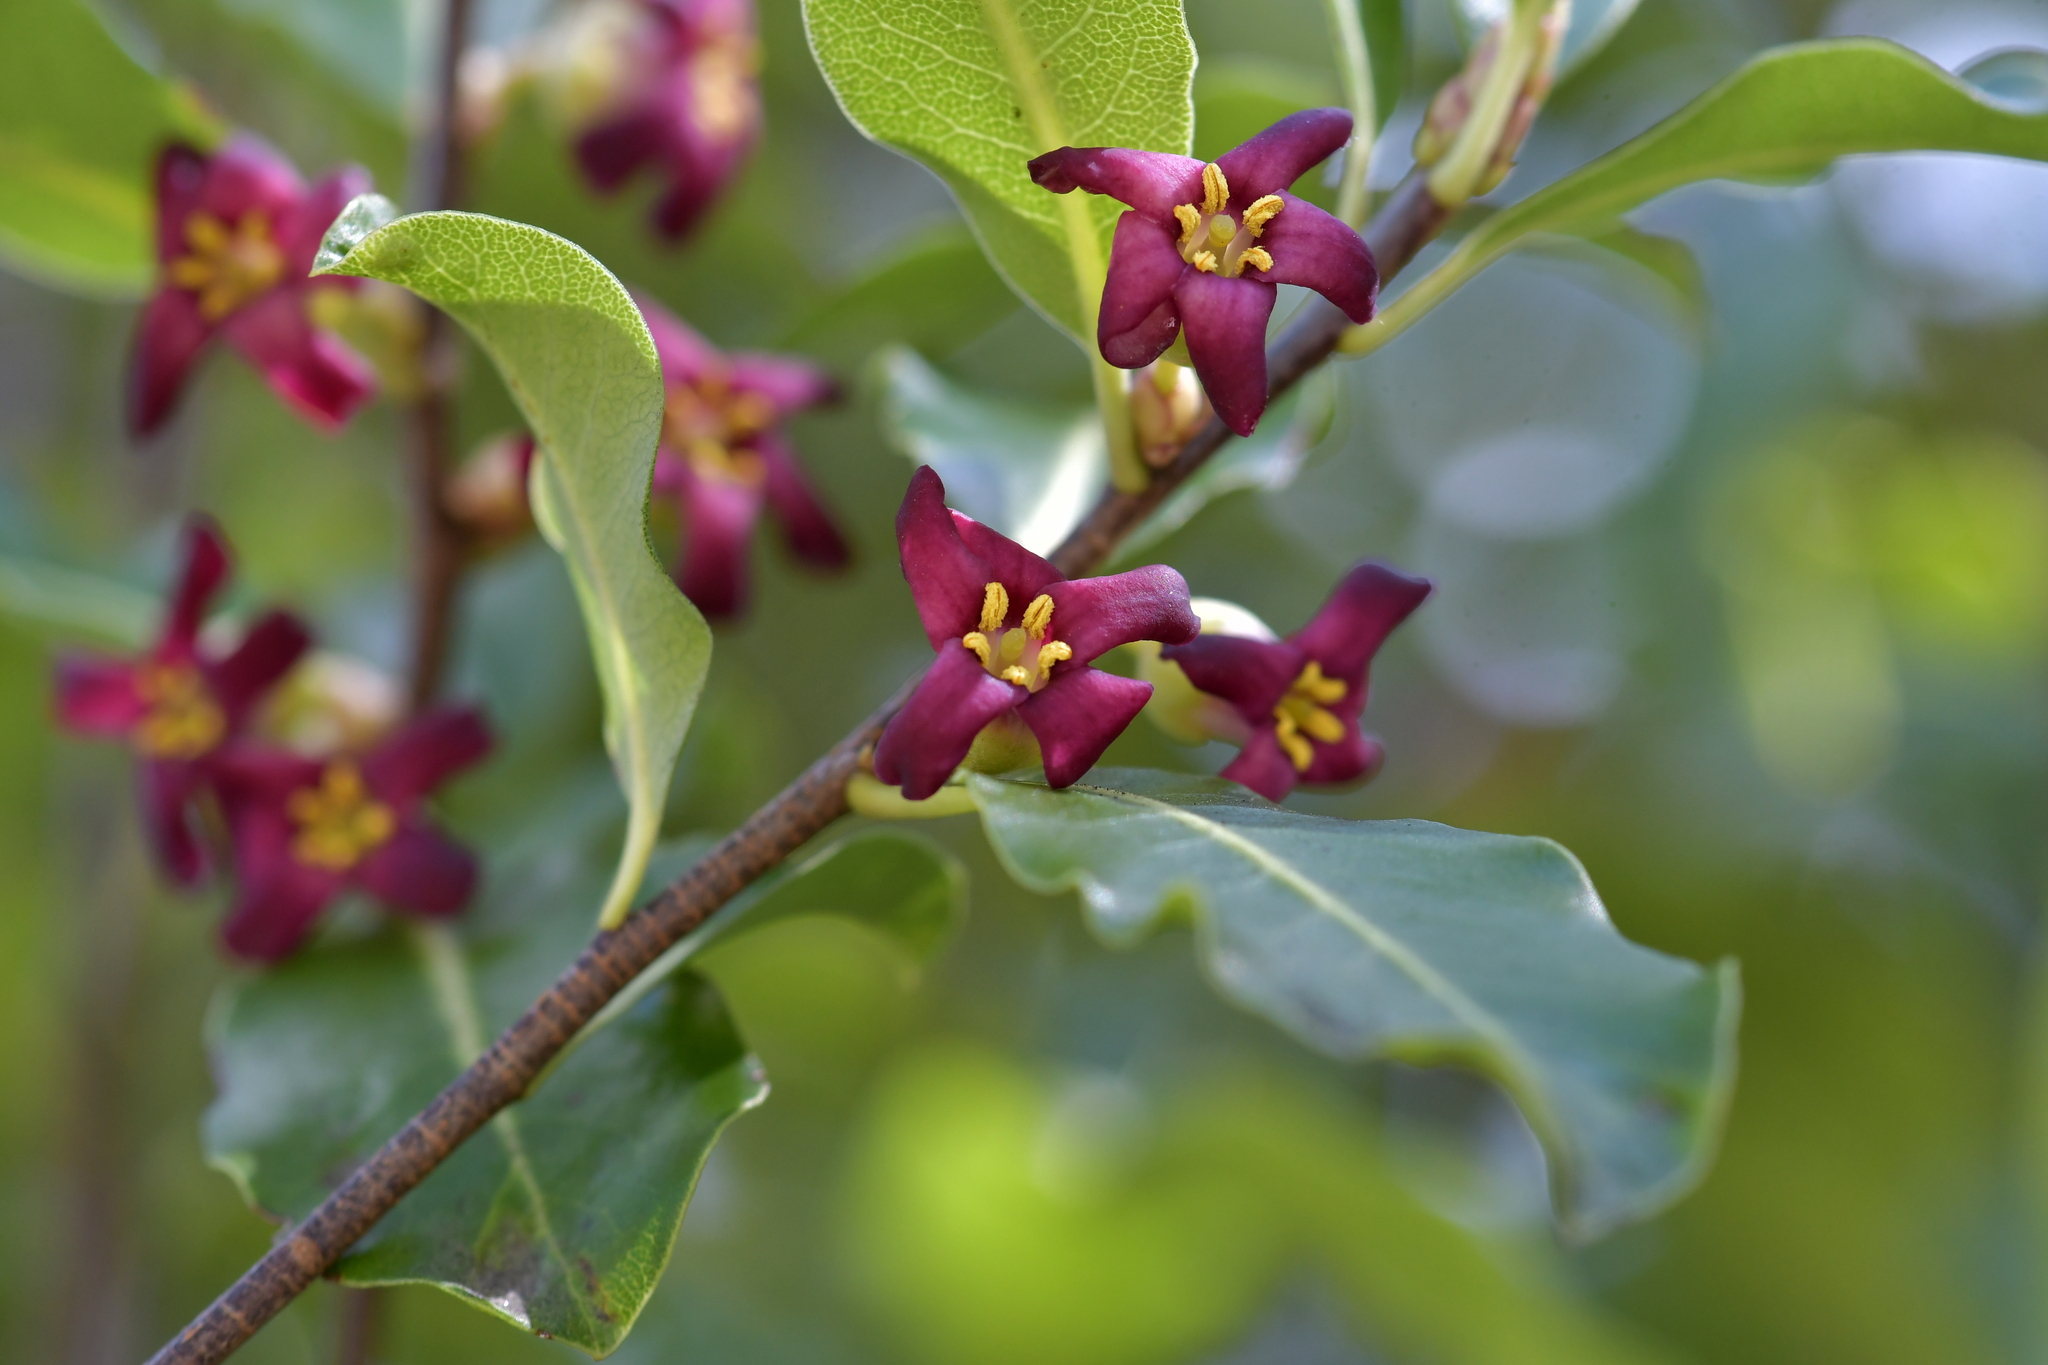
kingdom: Plantae
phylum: Tracheophyta
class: Magnoliopsida
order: Apiales
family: Pittosporaceae
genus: Pittosporum
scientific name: Pittosporum colensoi
